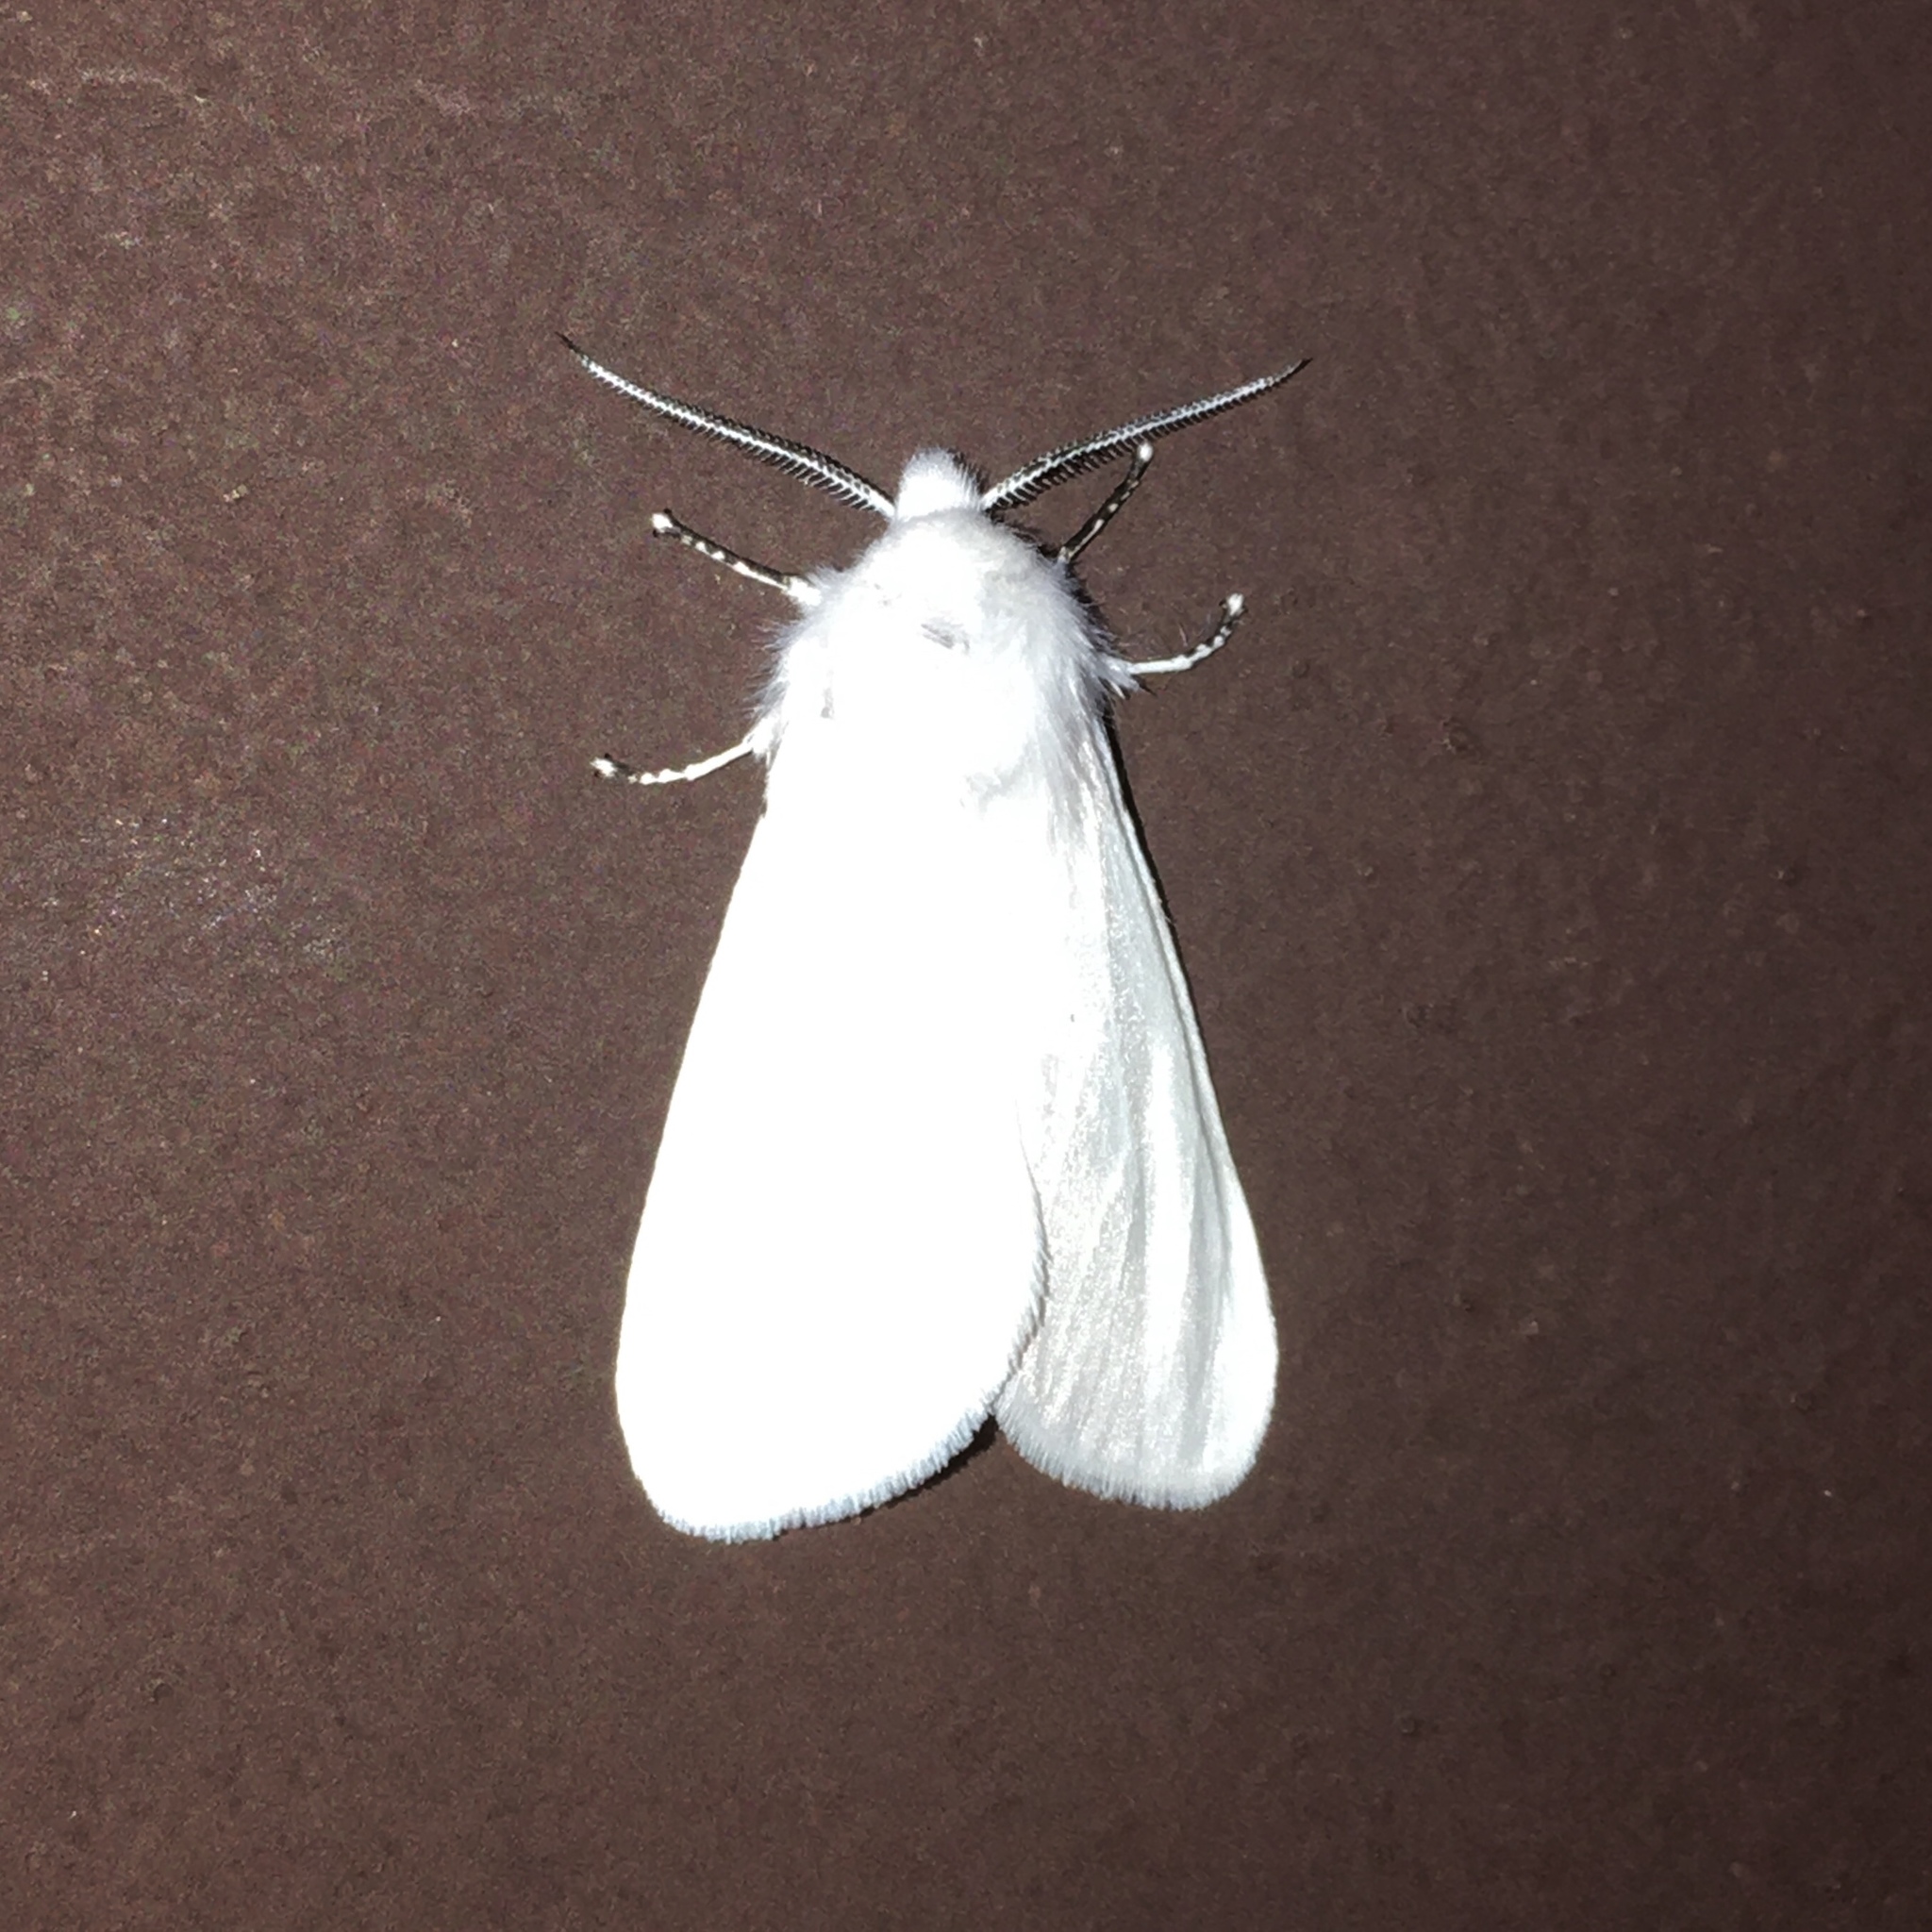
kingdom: Animalia
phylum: Arthropoda
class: Insecta
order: Lepidoptera
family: Erebidae
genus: Hyphantria
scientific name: Hyphantria cunea
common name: American white moth
